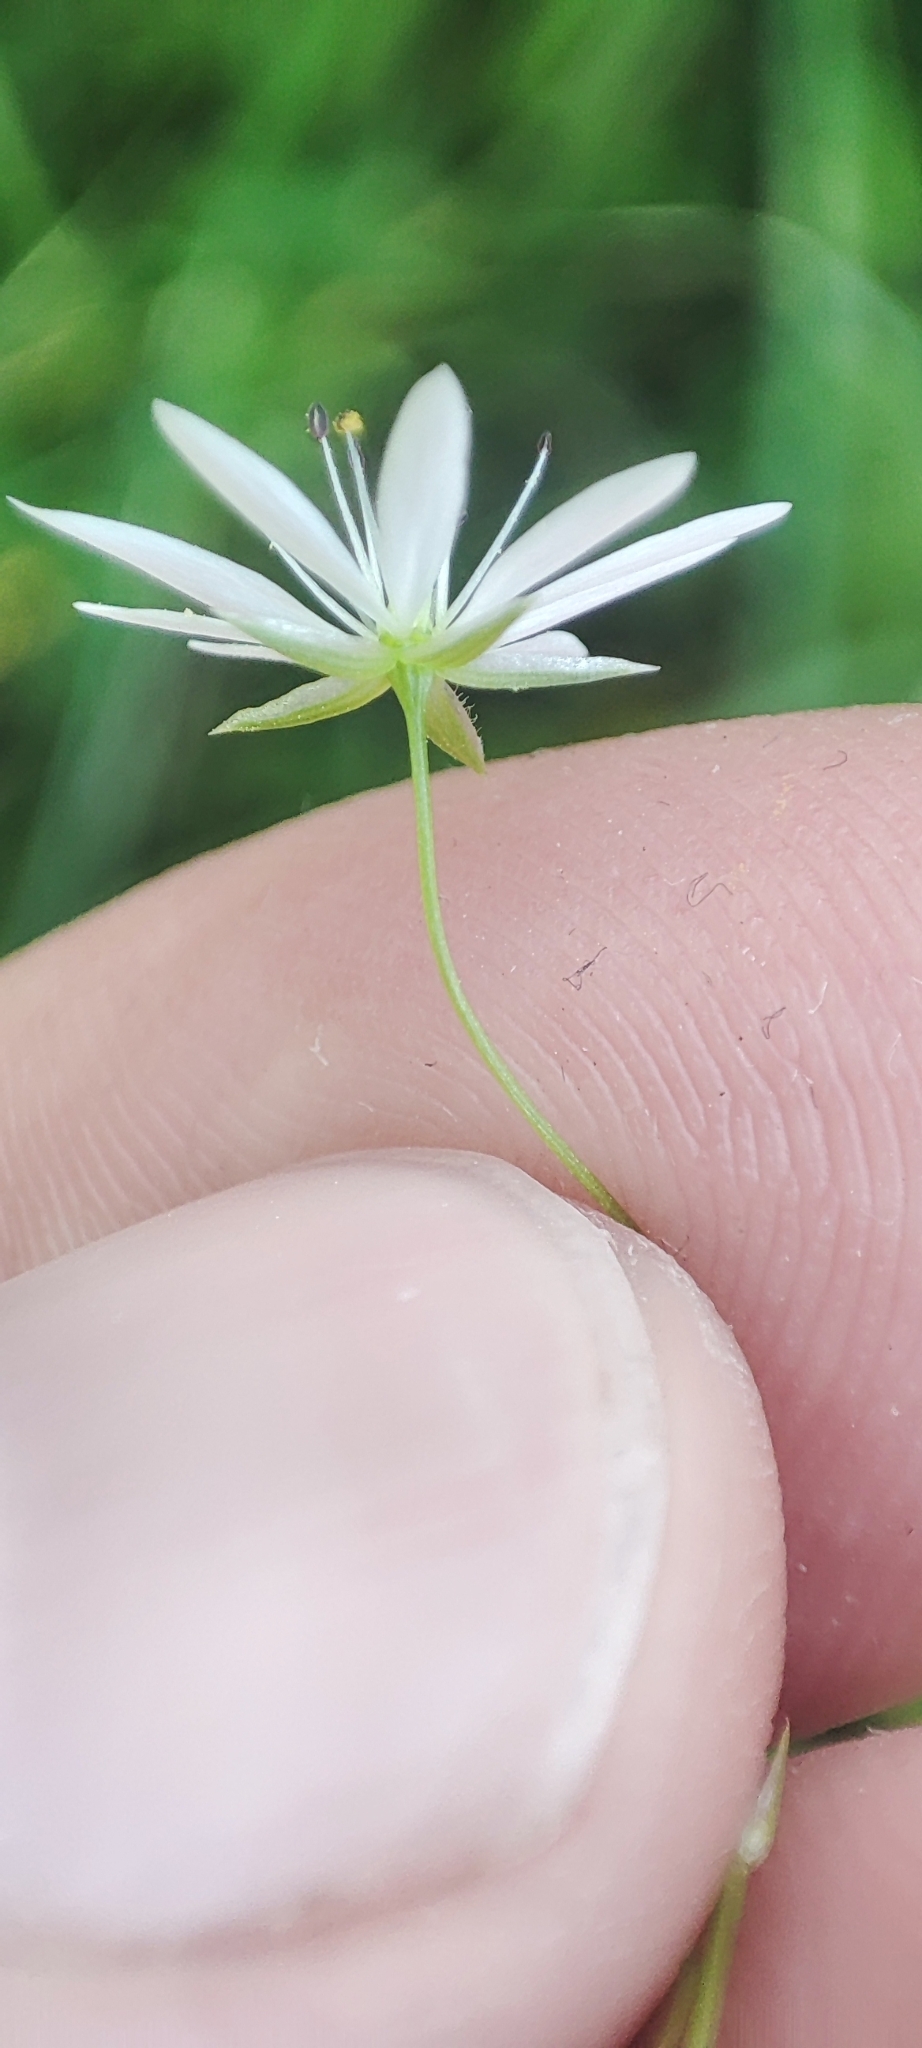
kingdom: Plantae
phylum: Tracheophyta
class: Magnoliopsida
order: Caryophyllales
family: Caryophyllaceae
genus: Stellaria
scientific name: Stellaria graminea
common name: Grass-like starwort
